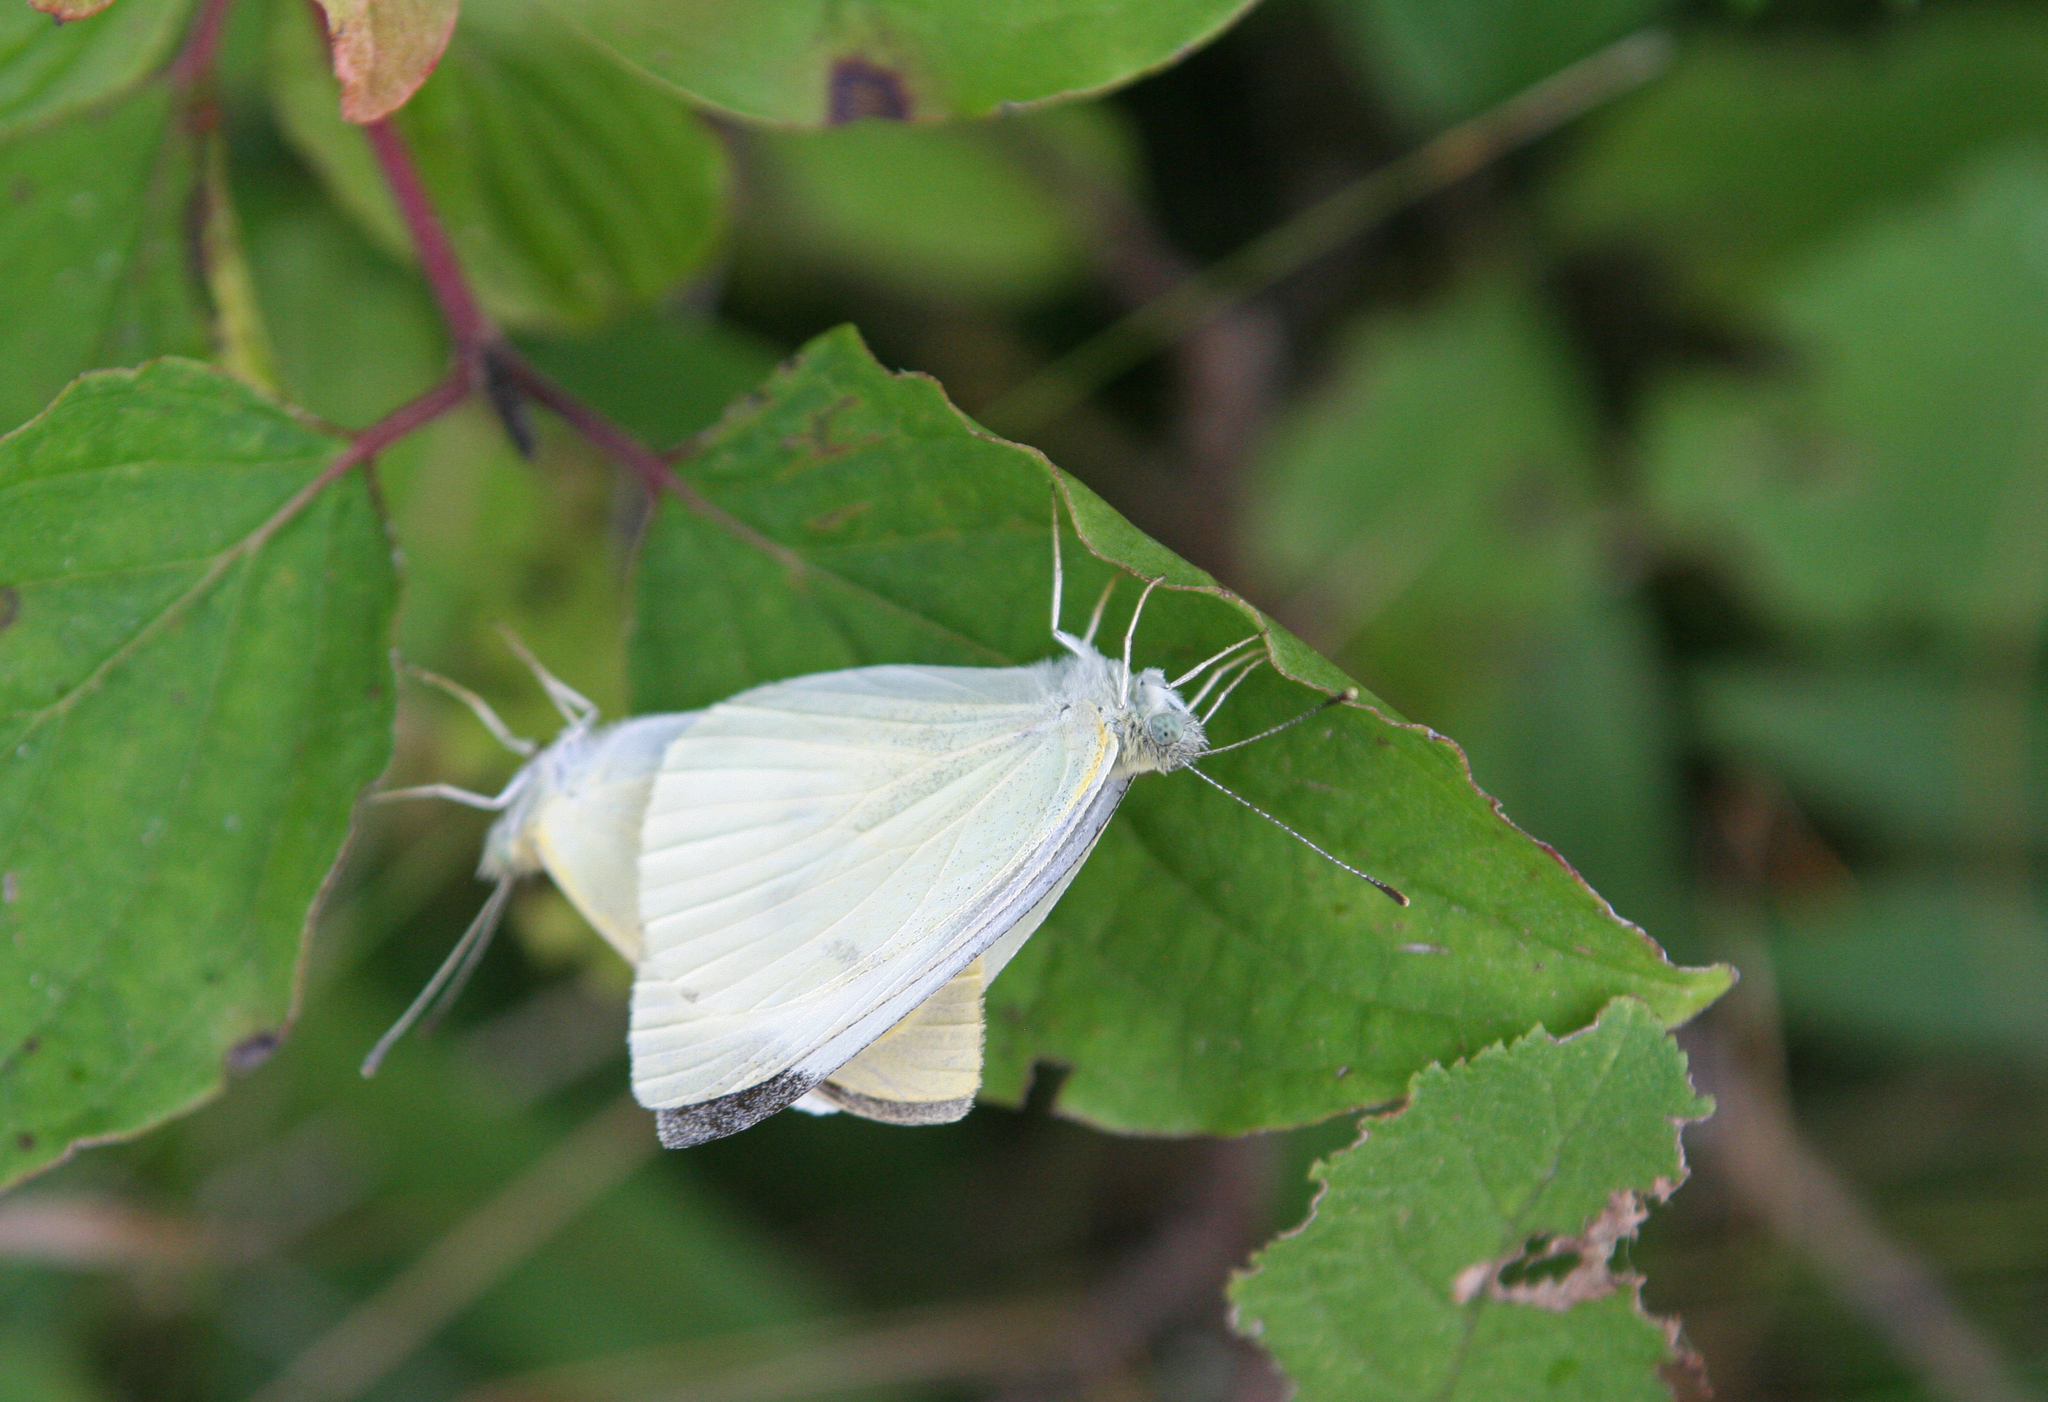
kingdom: Animalia
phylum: Arthropoda
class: Insecta
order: Lepidoptera
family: Pieridae
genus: Pieris
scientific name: Pieris rapae
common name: Small white
